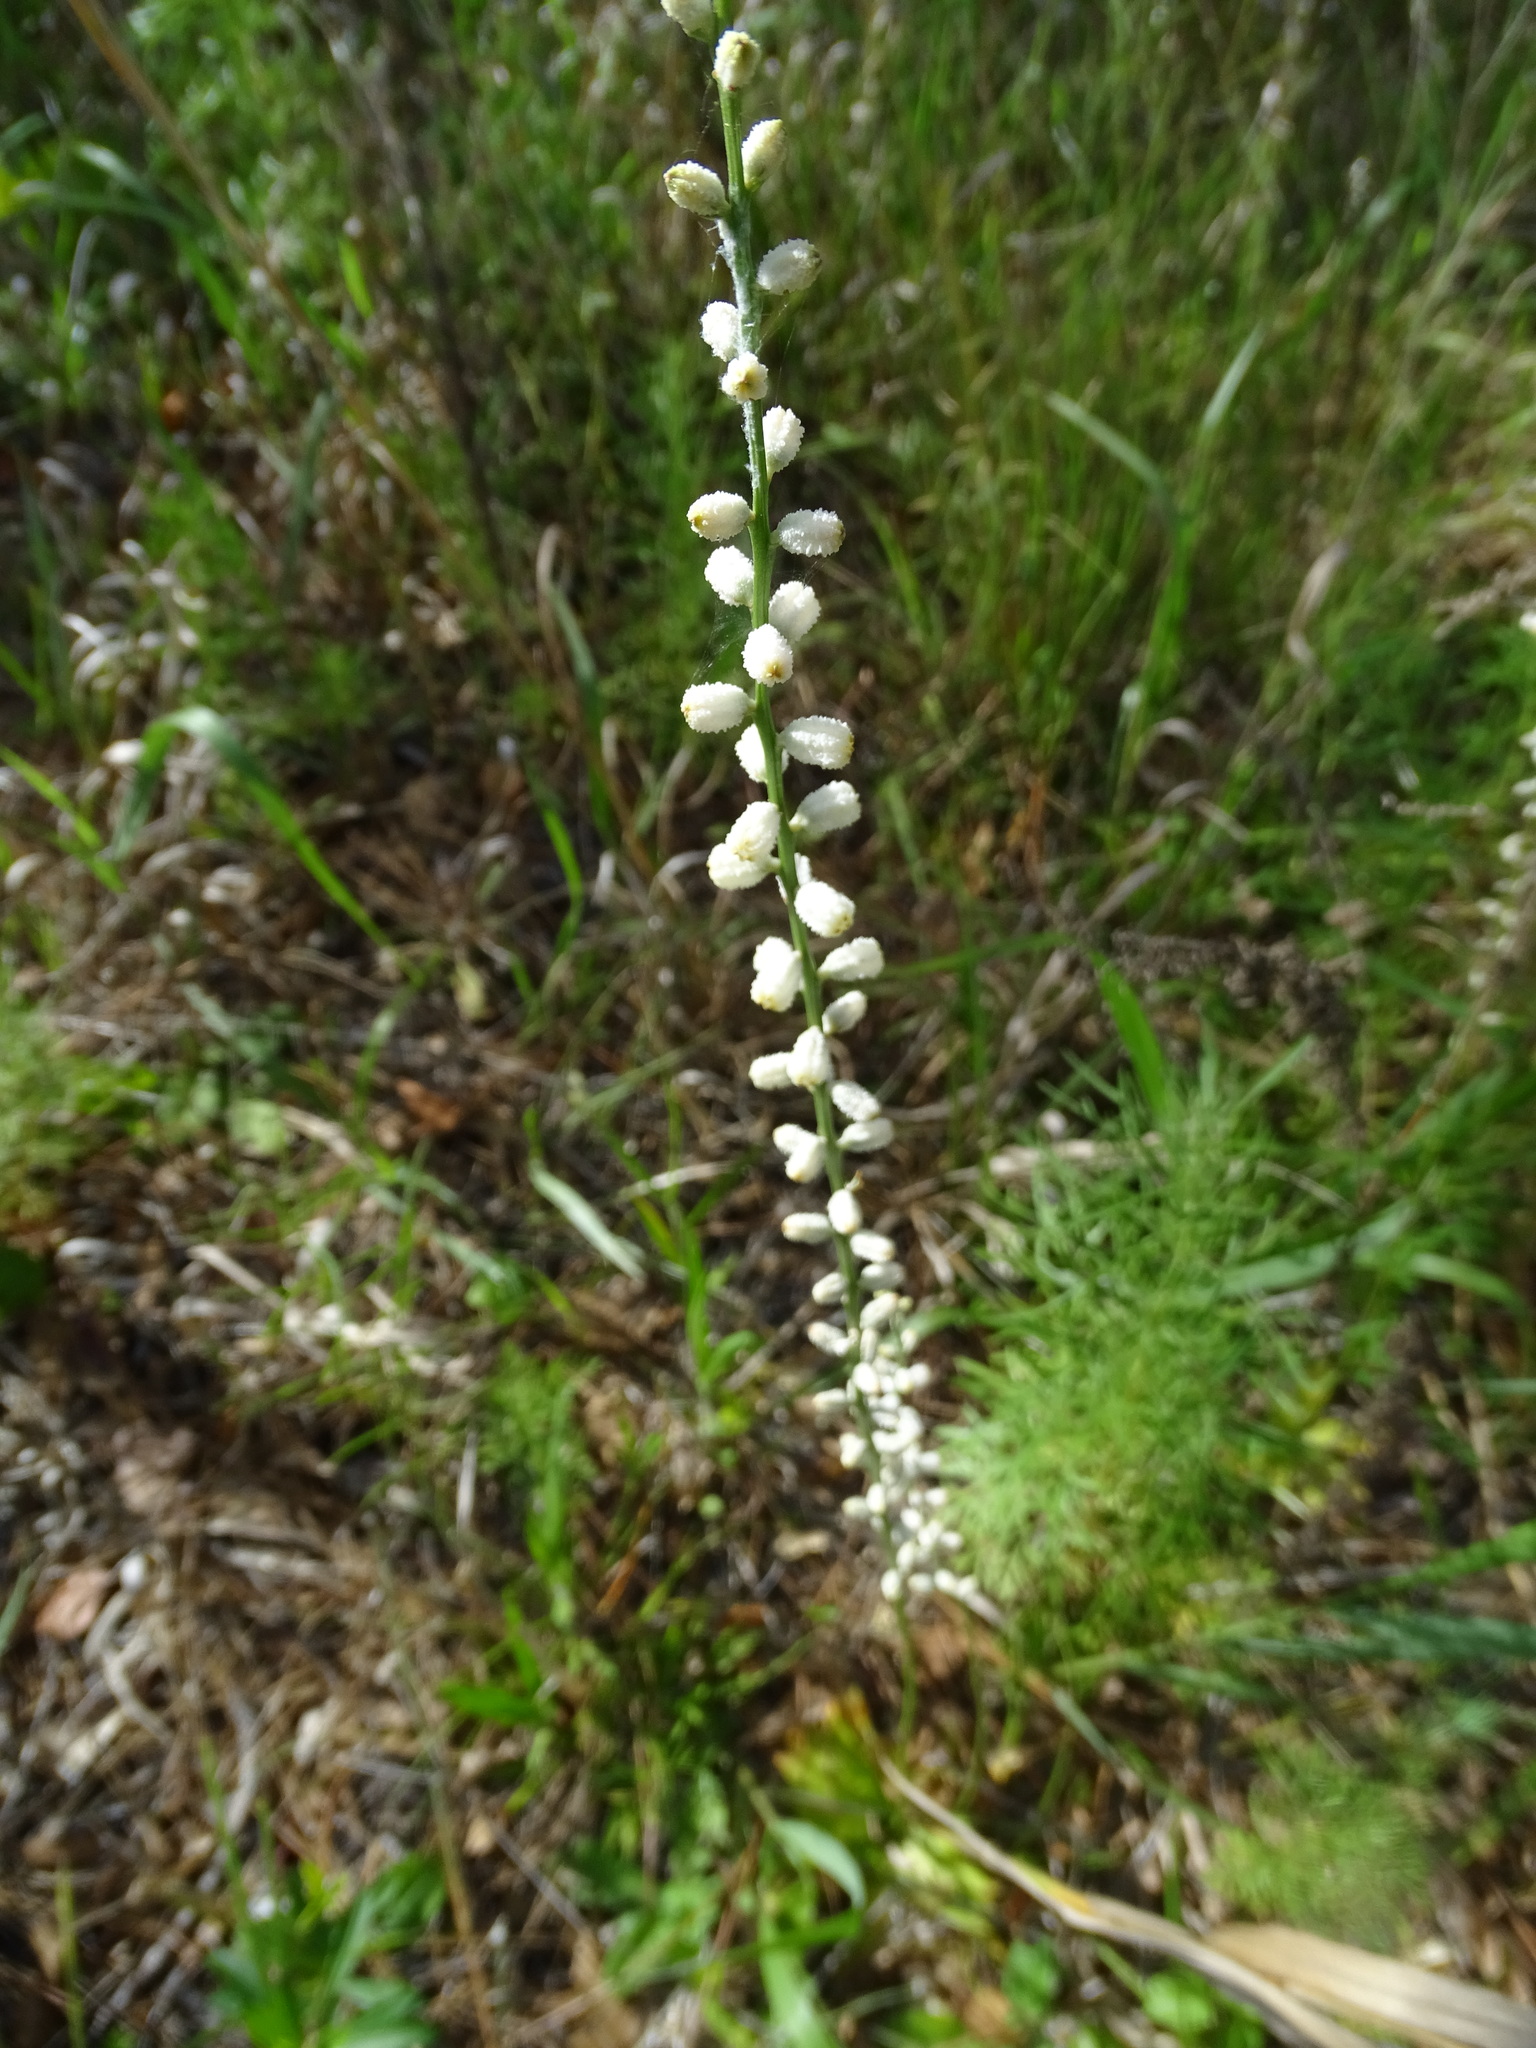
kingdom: Plantae
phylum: Tracheophyta
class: Liliopsida
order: Dioscoreales
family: Nartheciaceae
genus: Aletris
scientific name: Aletris obovata
